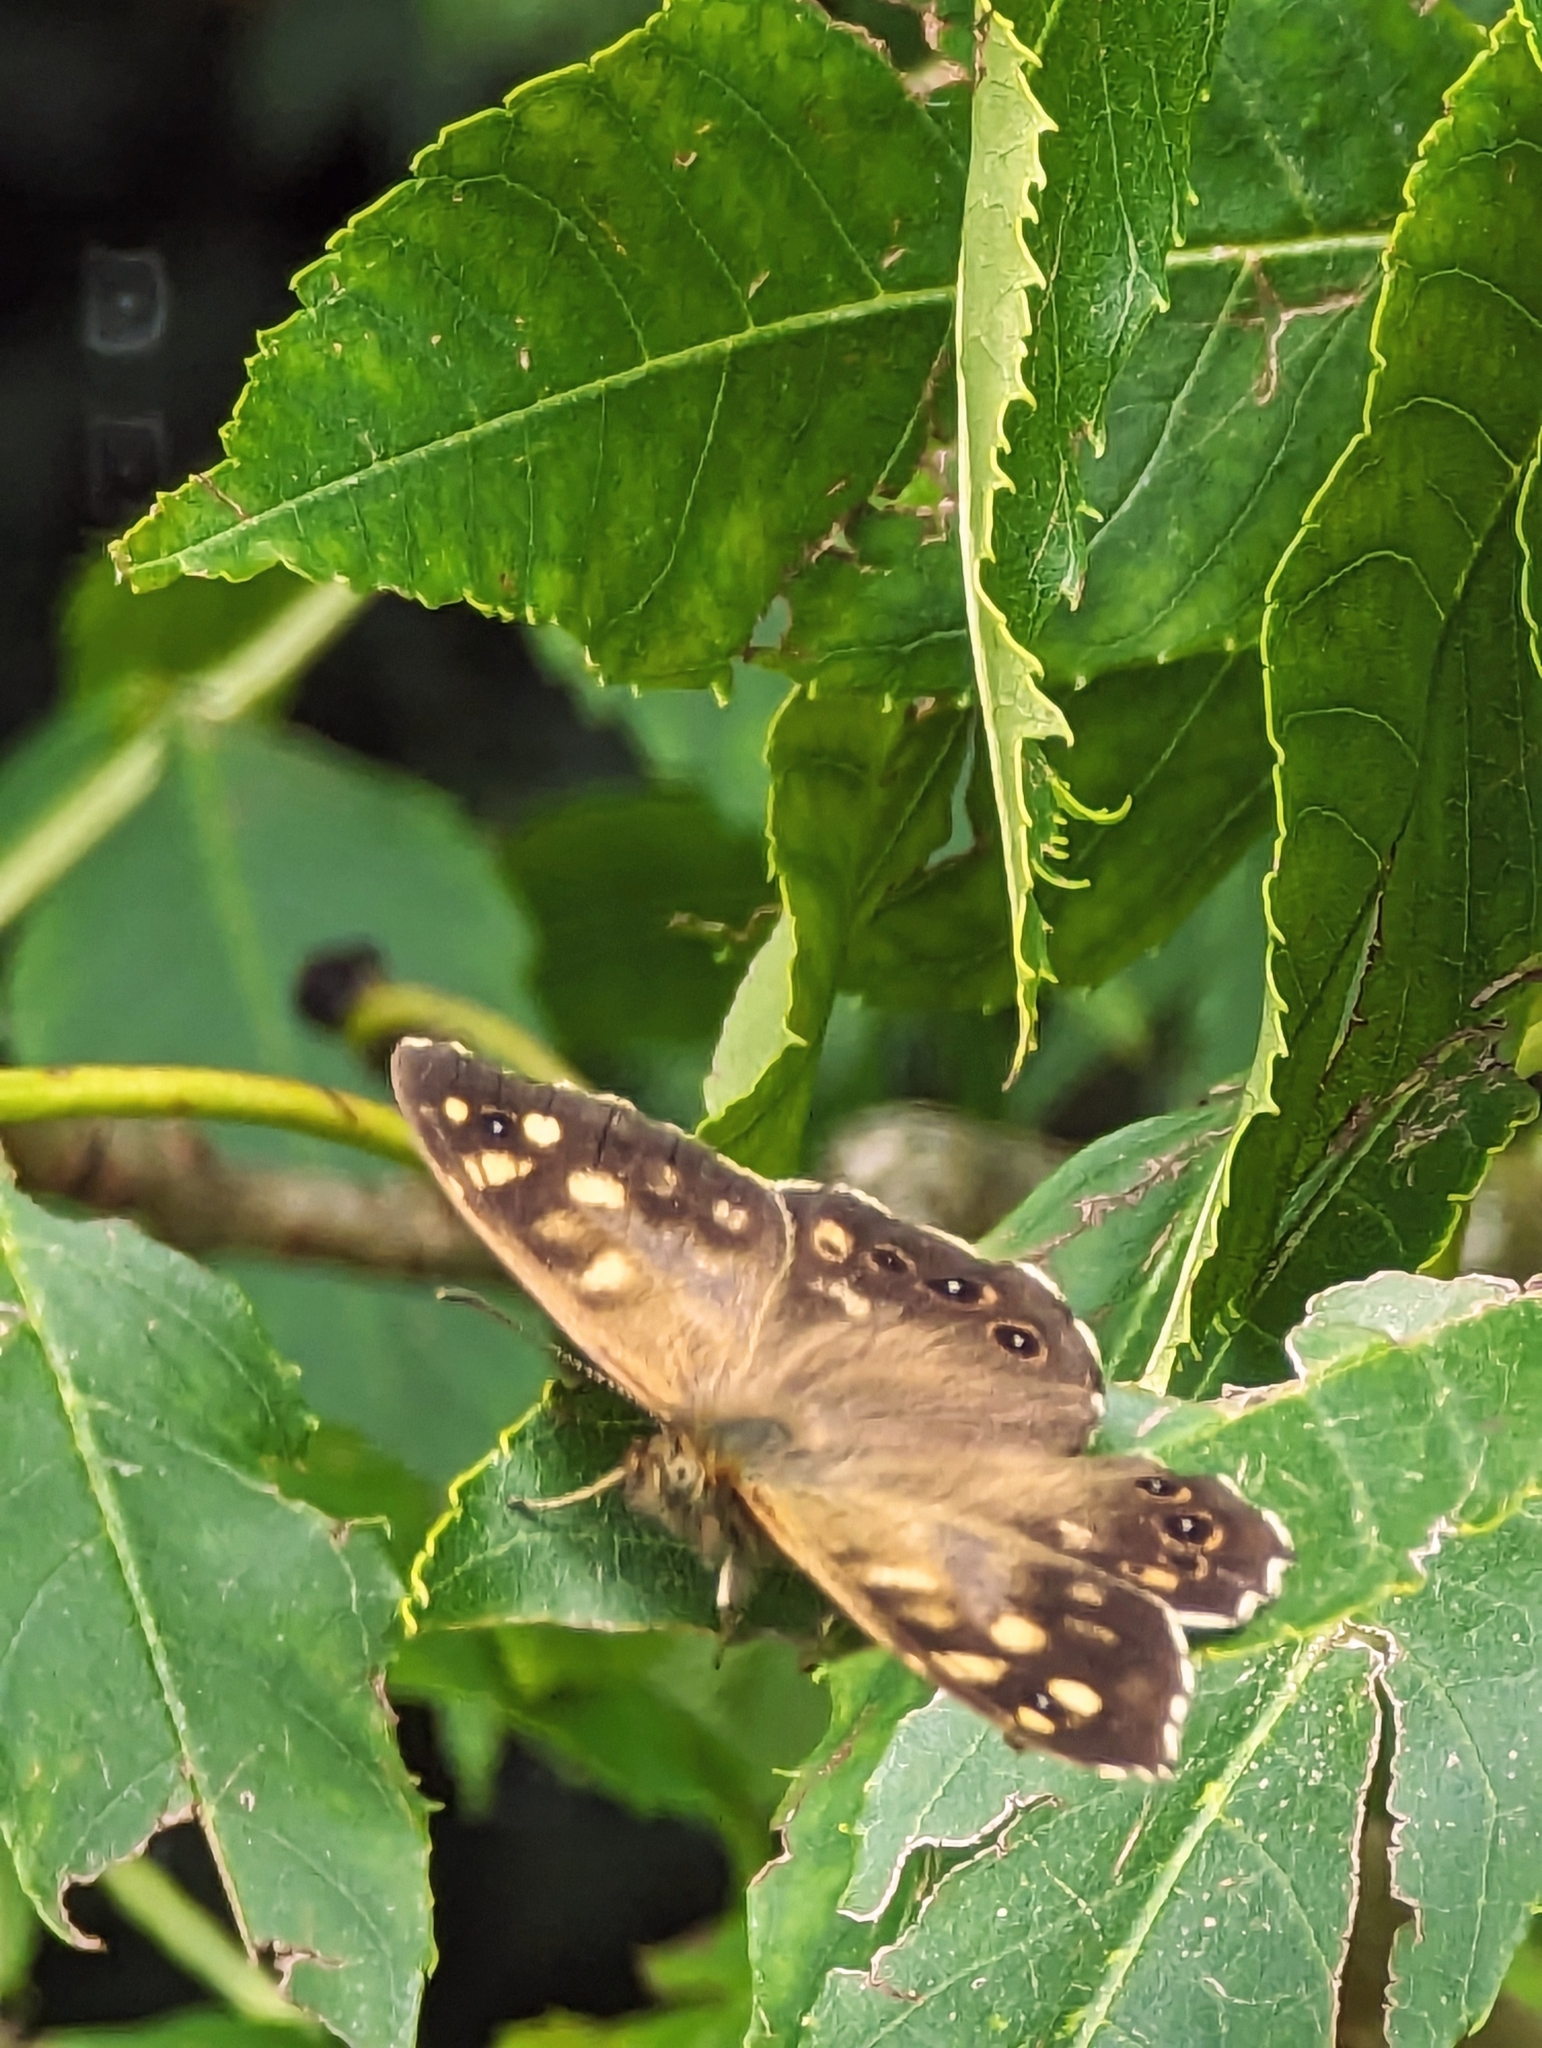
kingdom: Animalia
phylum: Arthropoda
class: Insecta
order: Lepidoptera
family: Nymphalidae
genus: Pararge
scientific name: Pararge aegeria
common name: Speckled wood
